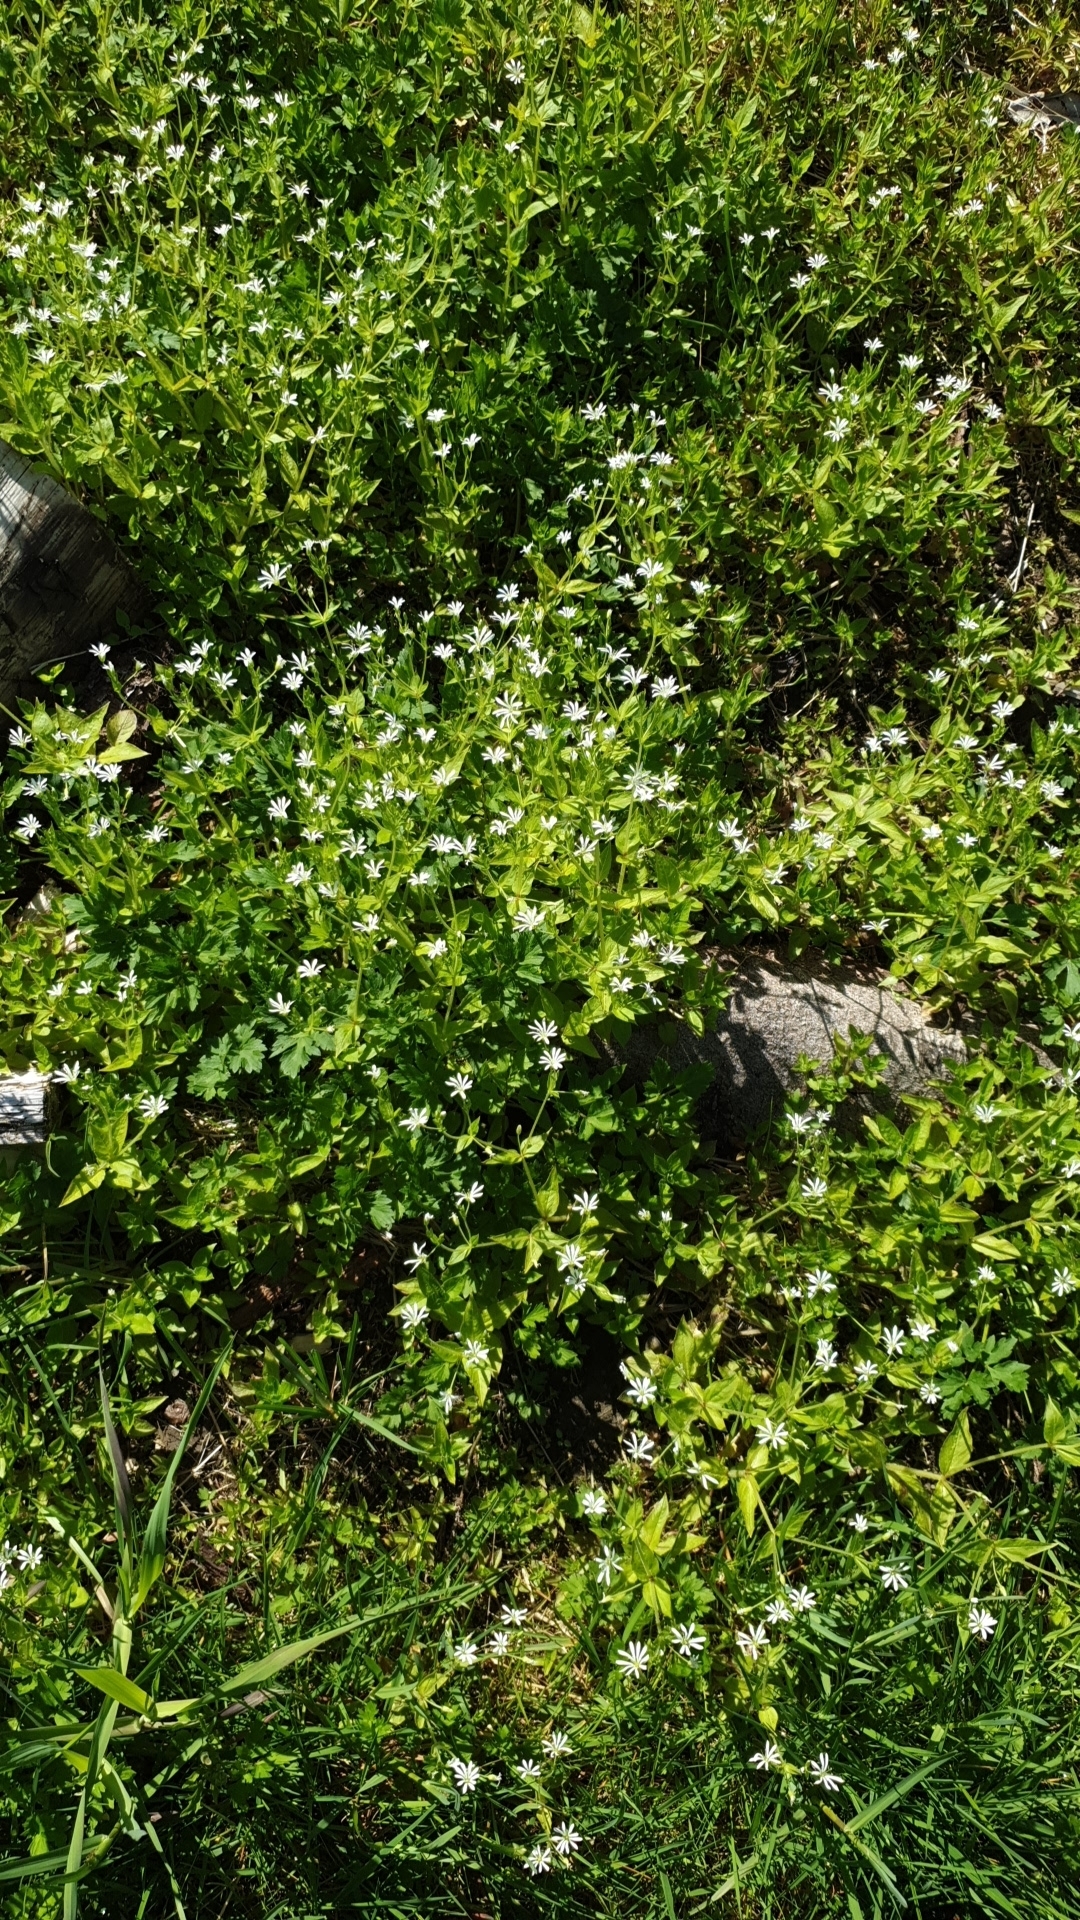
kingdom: Plantae
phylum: Tracheophyta
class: Magnoliopsida
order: Caryophyllales
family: Caryophyllaceae
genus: Stellaria
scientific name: Stellaria nemorum
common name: Wood stitchwort
